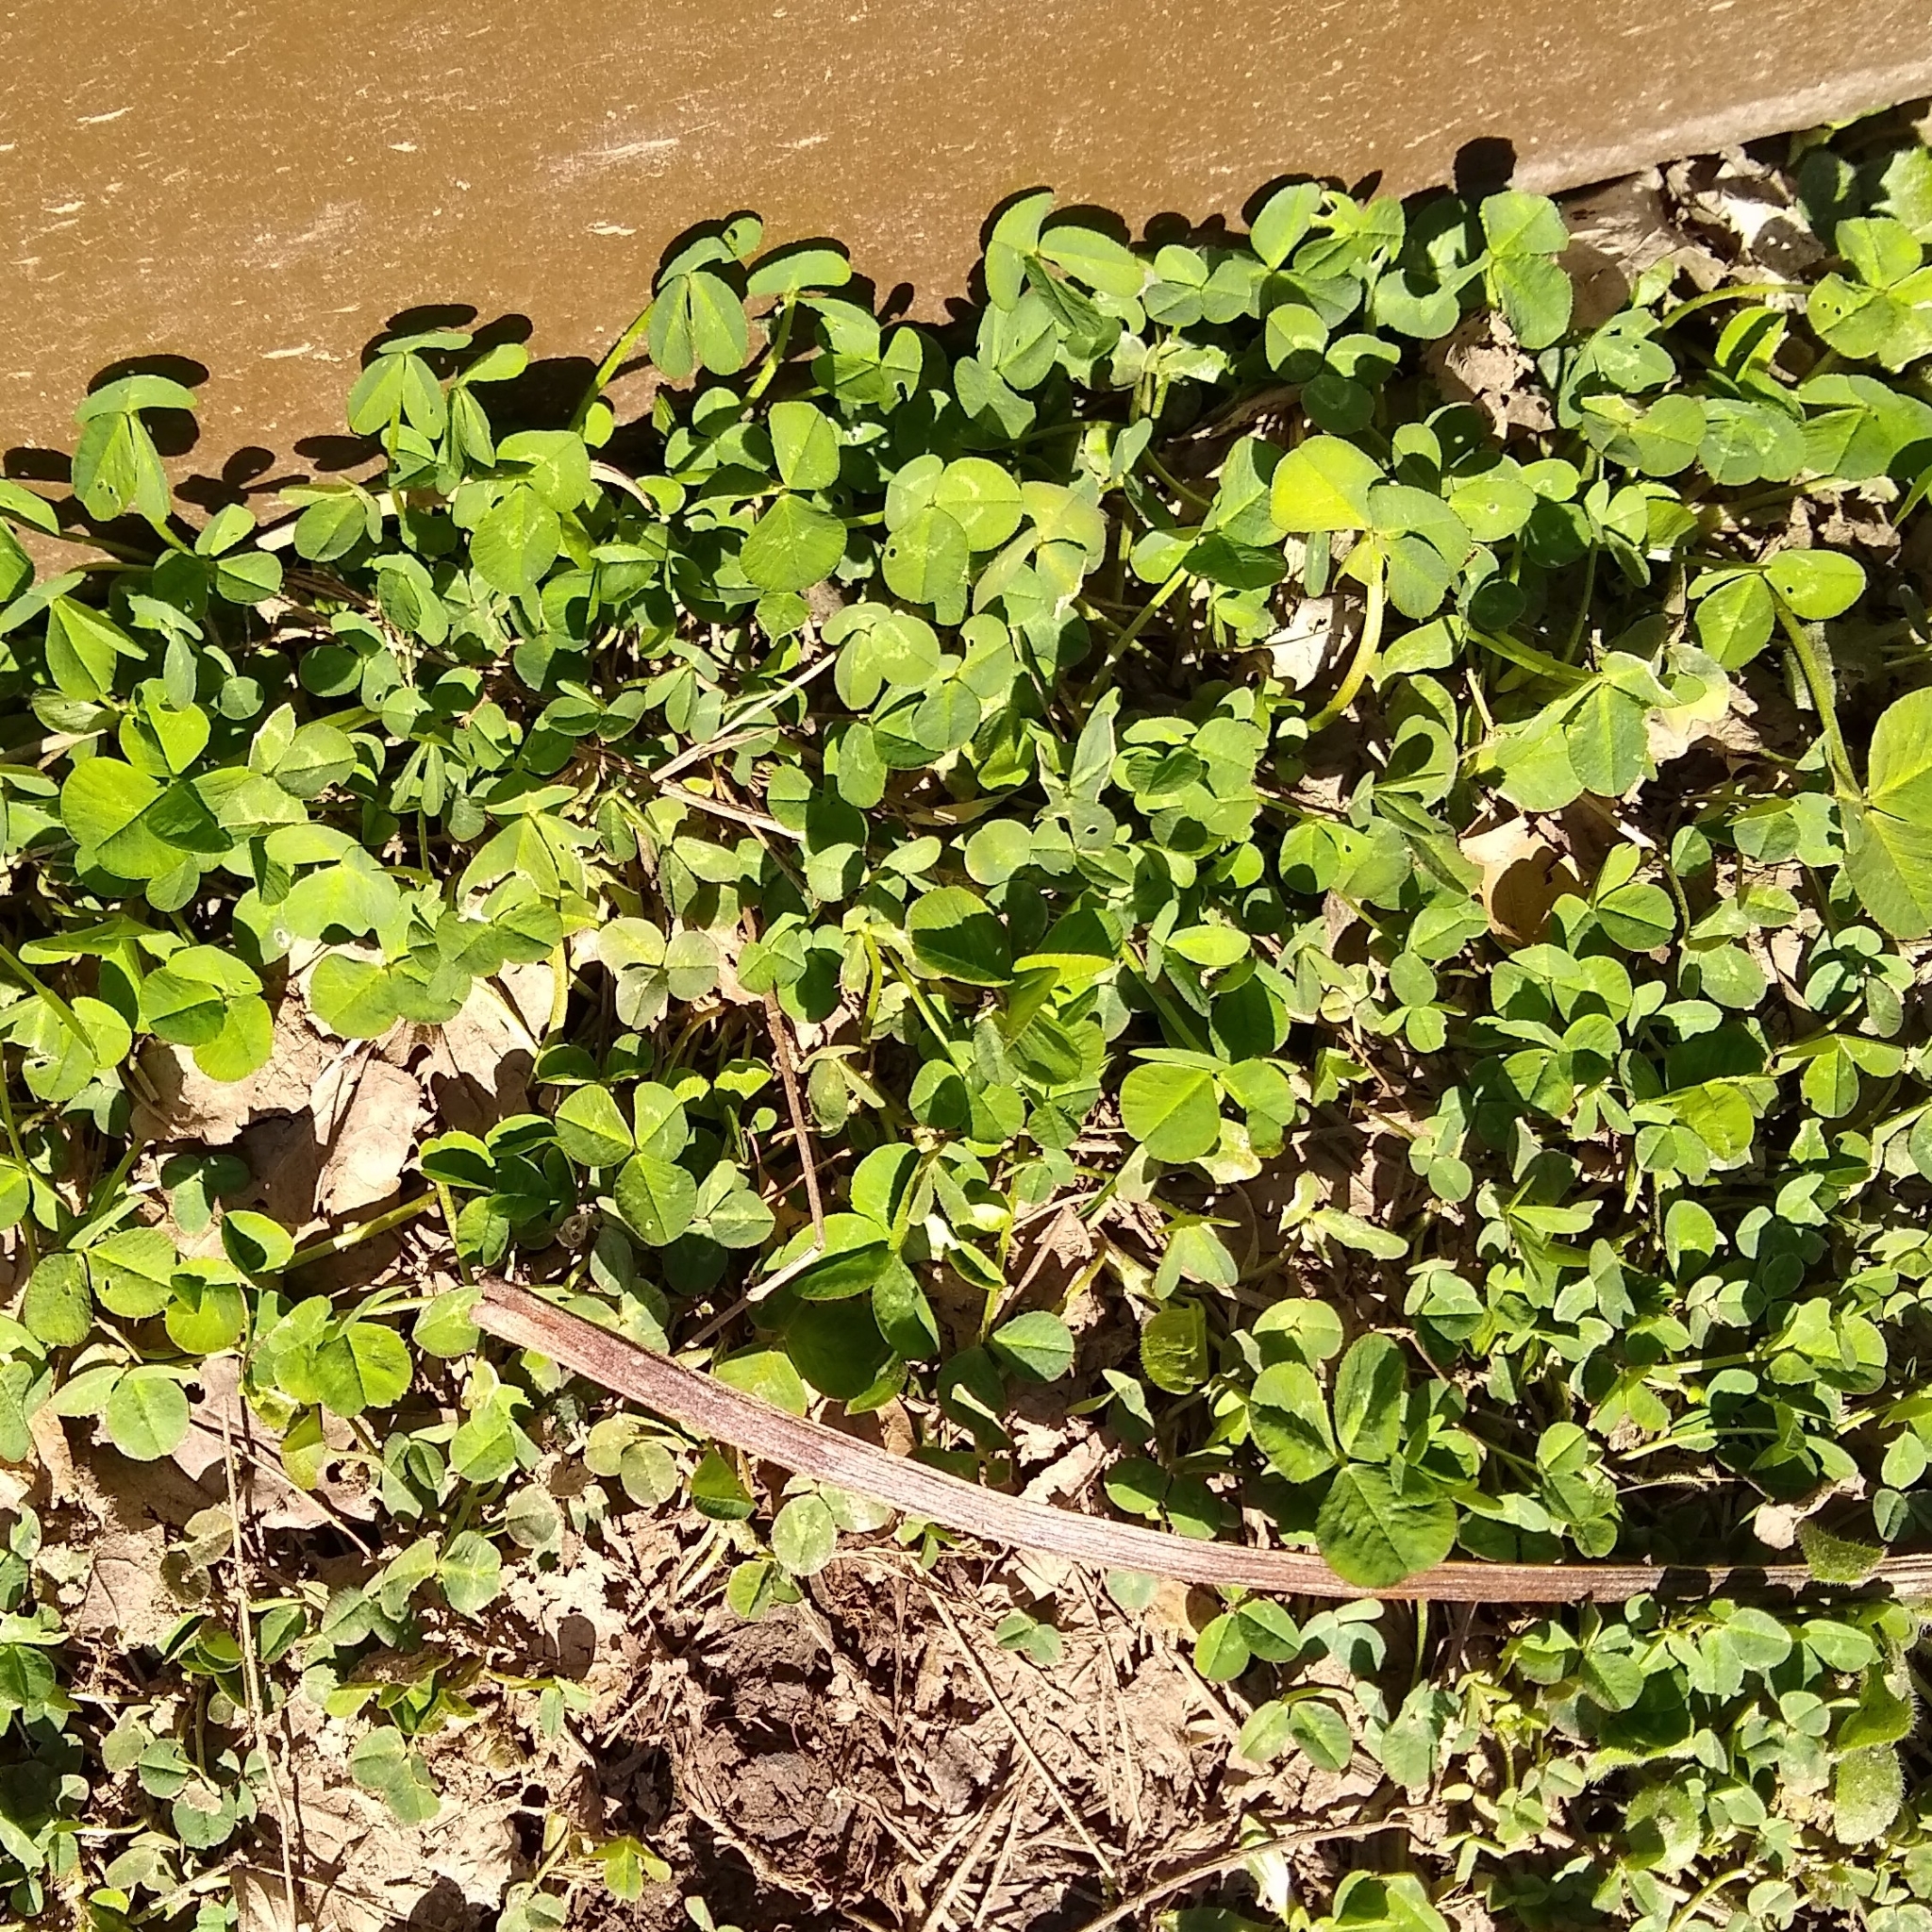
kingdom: Plantae
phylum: Tracheophyta
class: Magnoliopsida
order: Fabales
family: Fabaceae
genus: Trifolium
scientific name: Trifolium repens
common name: White clover
